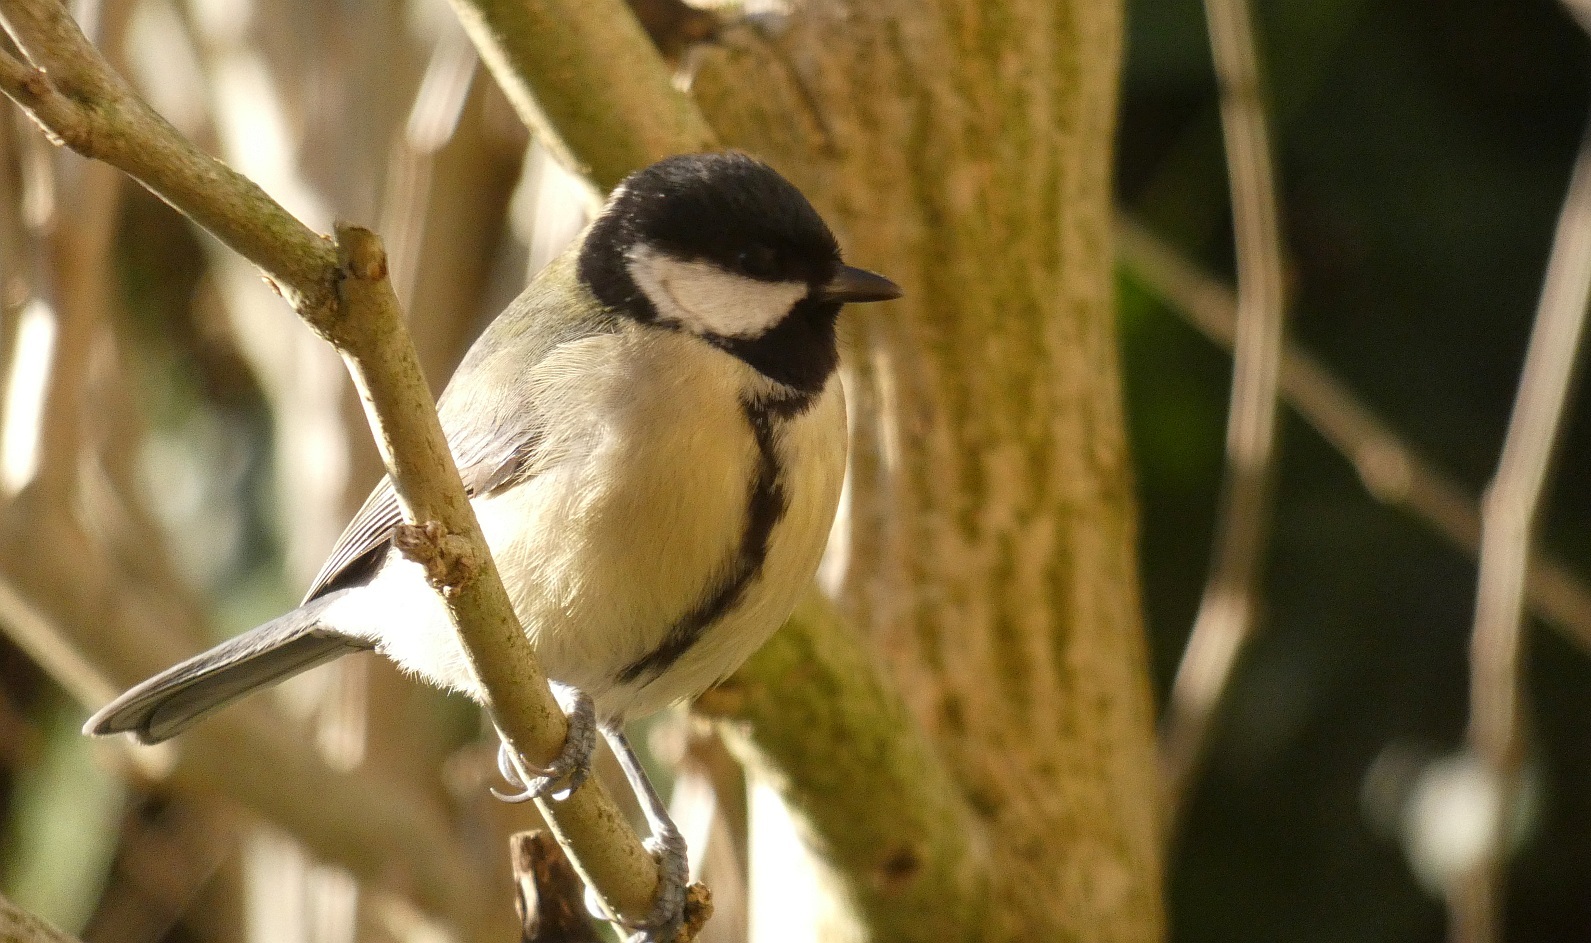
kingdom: Animalia
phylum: Chordata
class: Aves
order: Passeriformes
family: Paridae
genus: Parus
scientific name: Parus major
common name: Great tit
